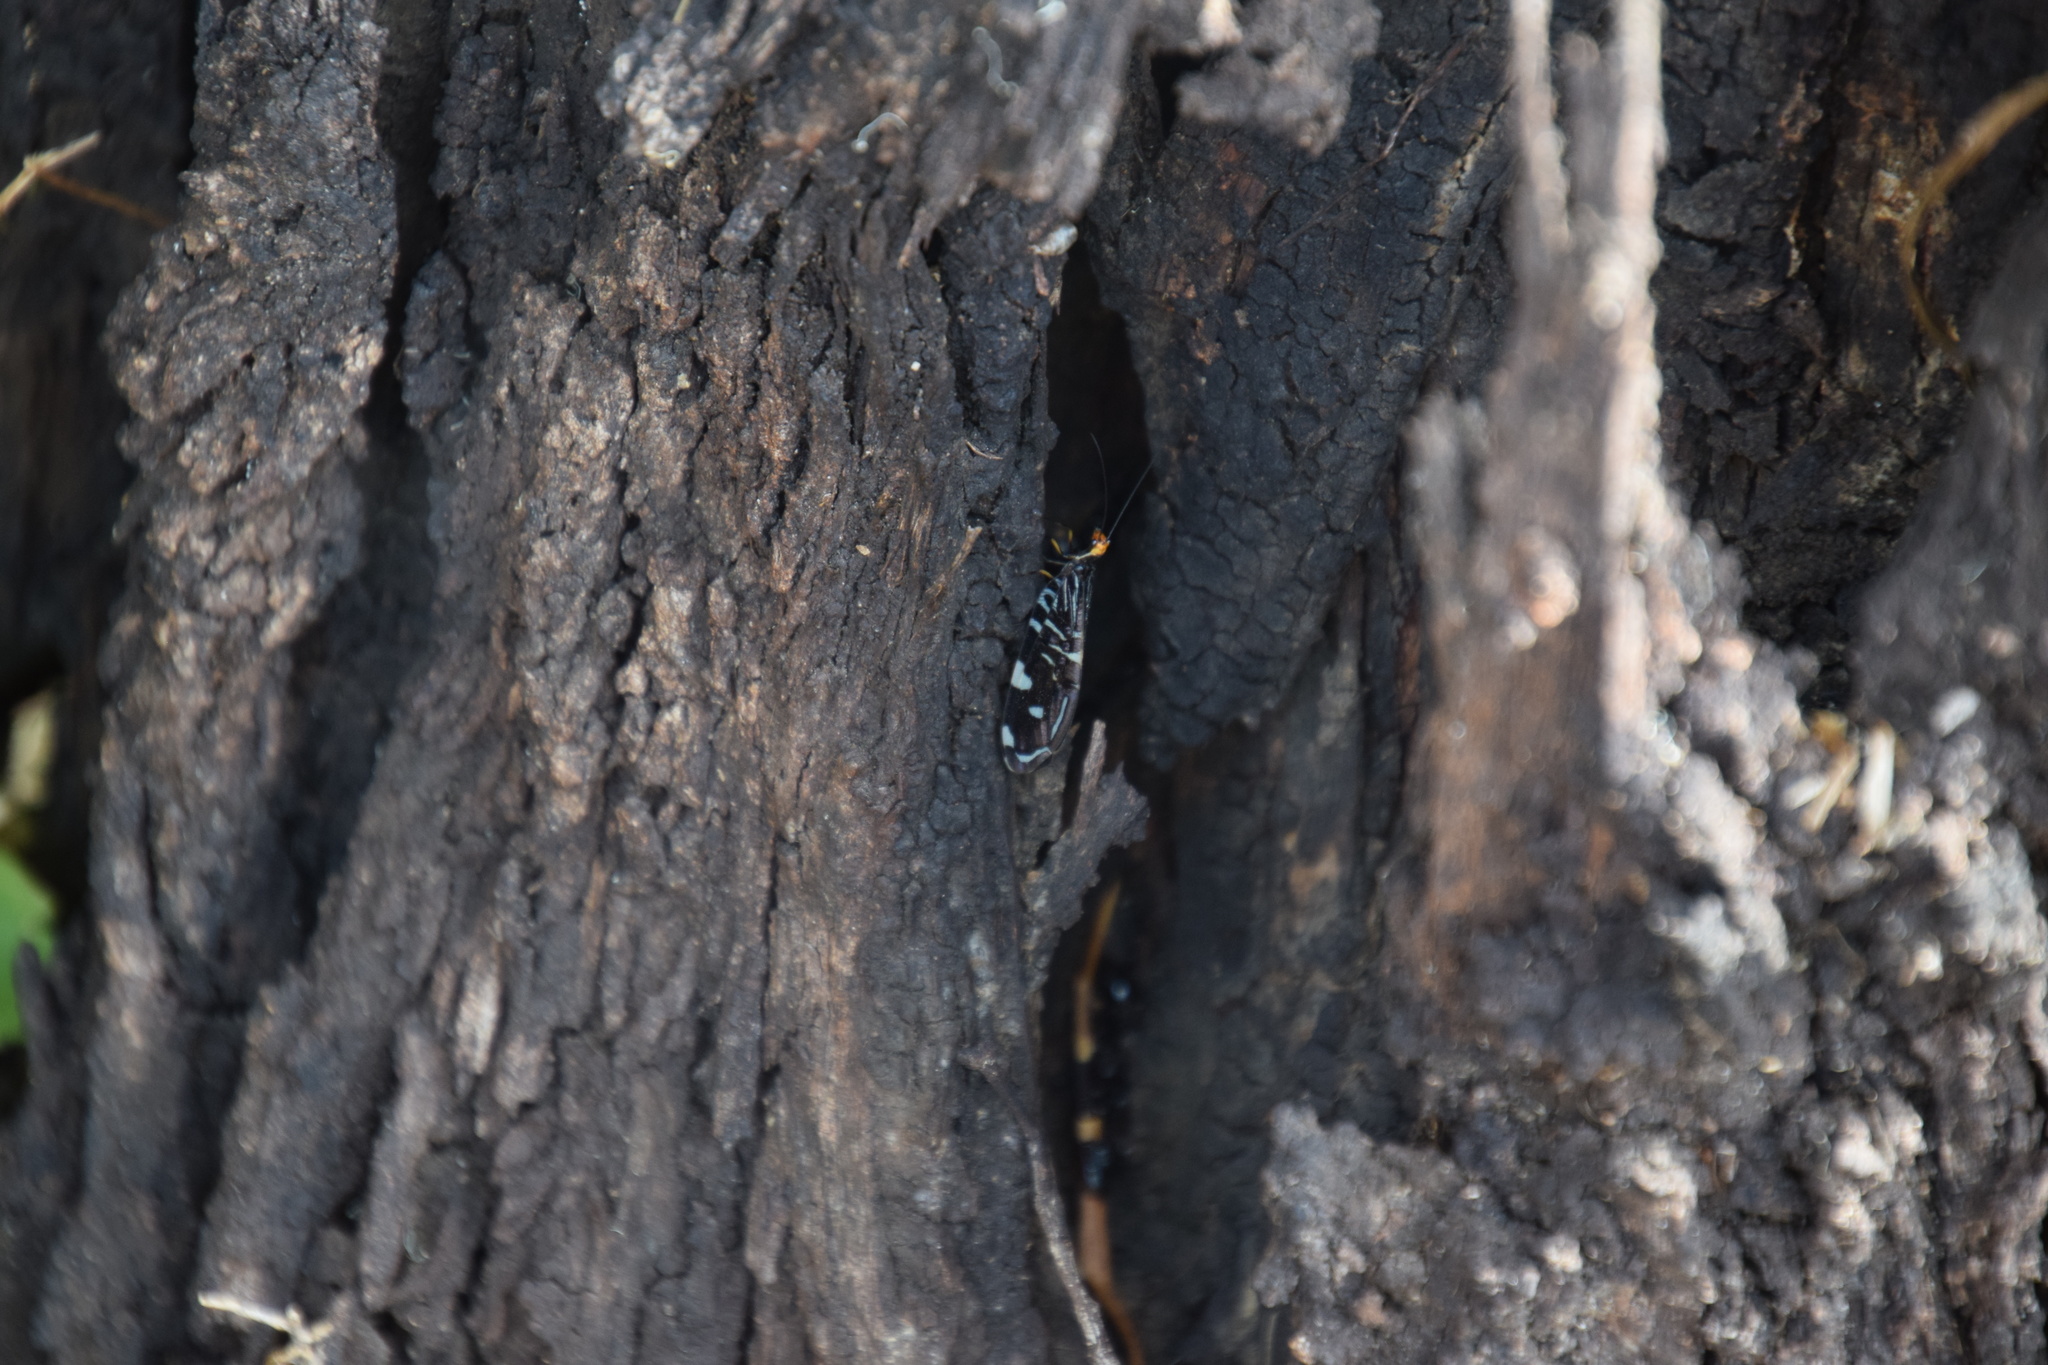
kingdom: Animalia
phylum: Arthropoda
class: Insecta
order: Neuroptera
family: Osmylidae
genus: Porismus
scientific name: Porismus strigatus
